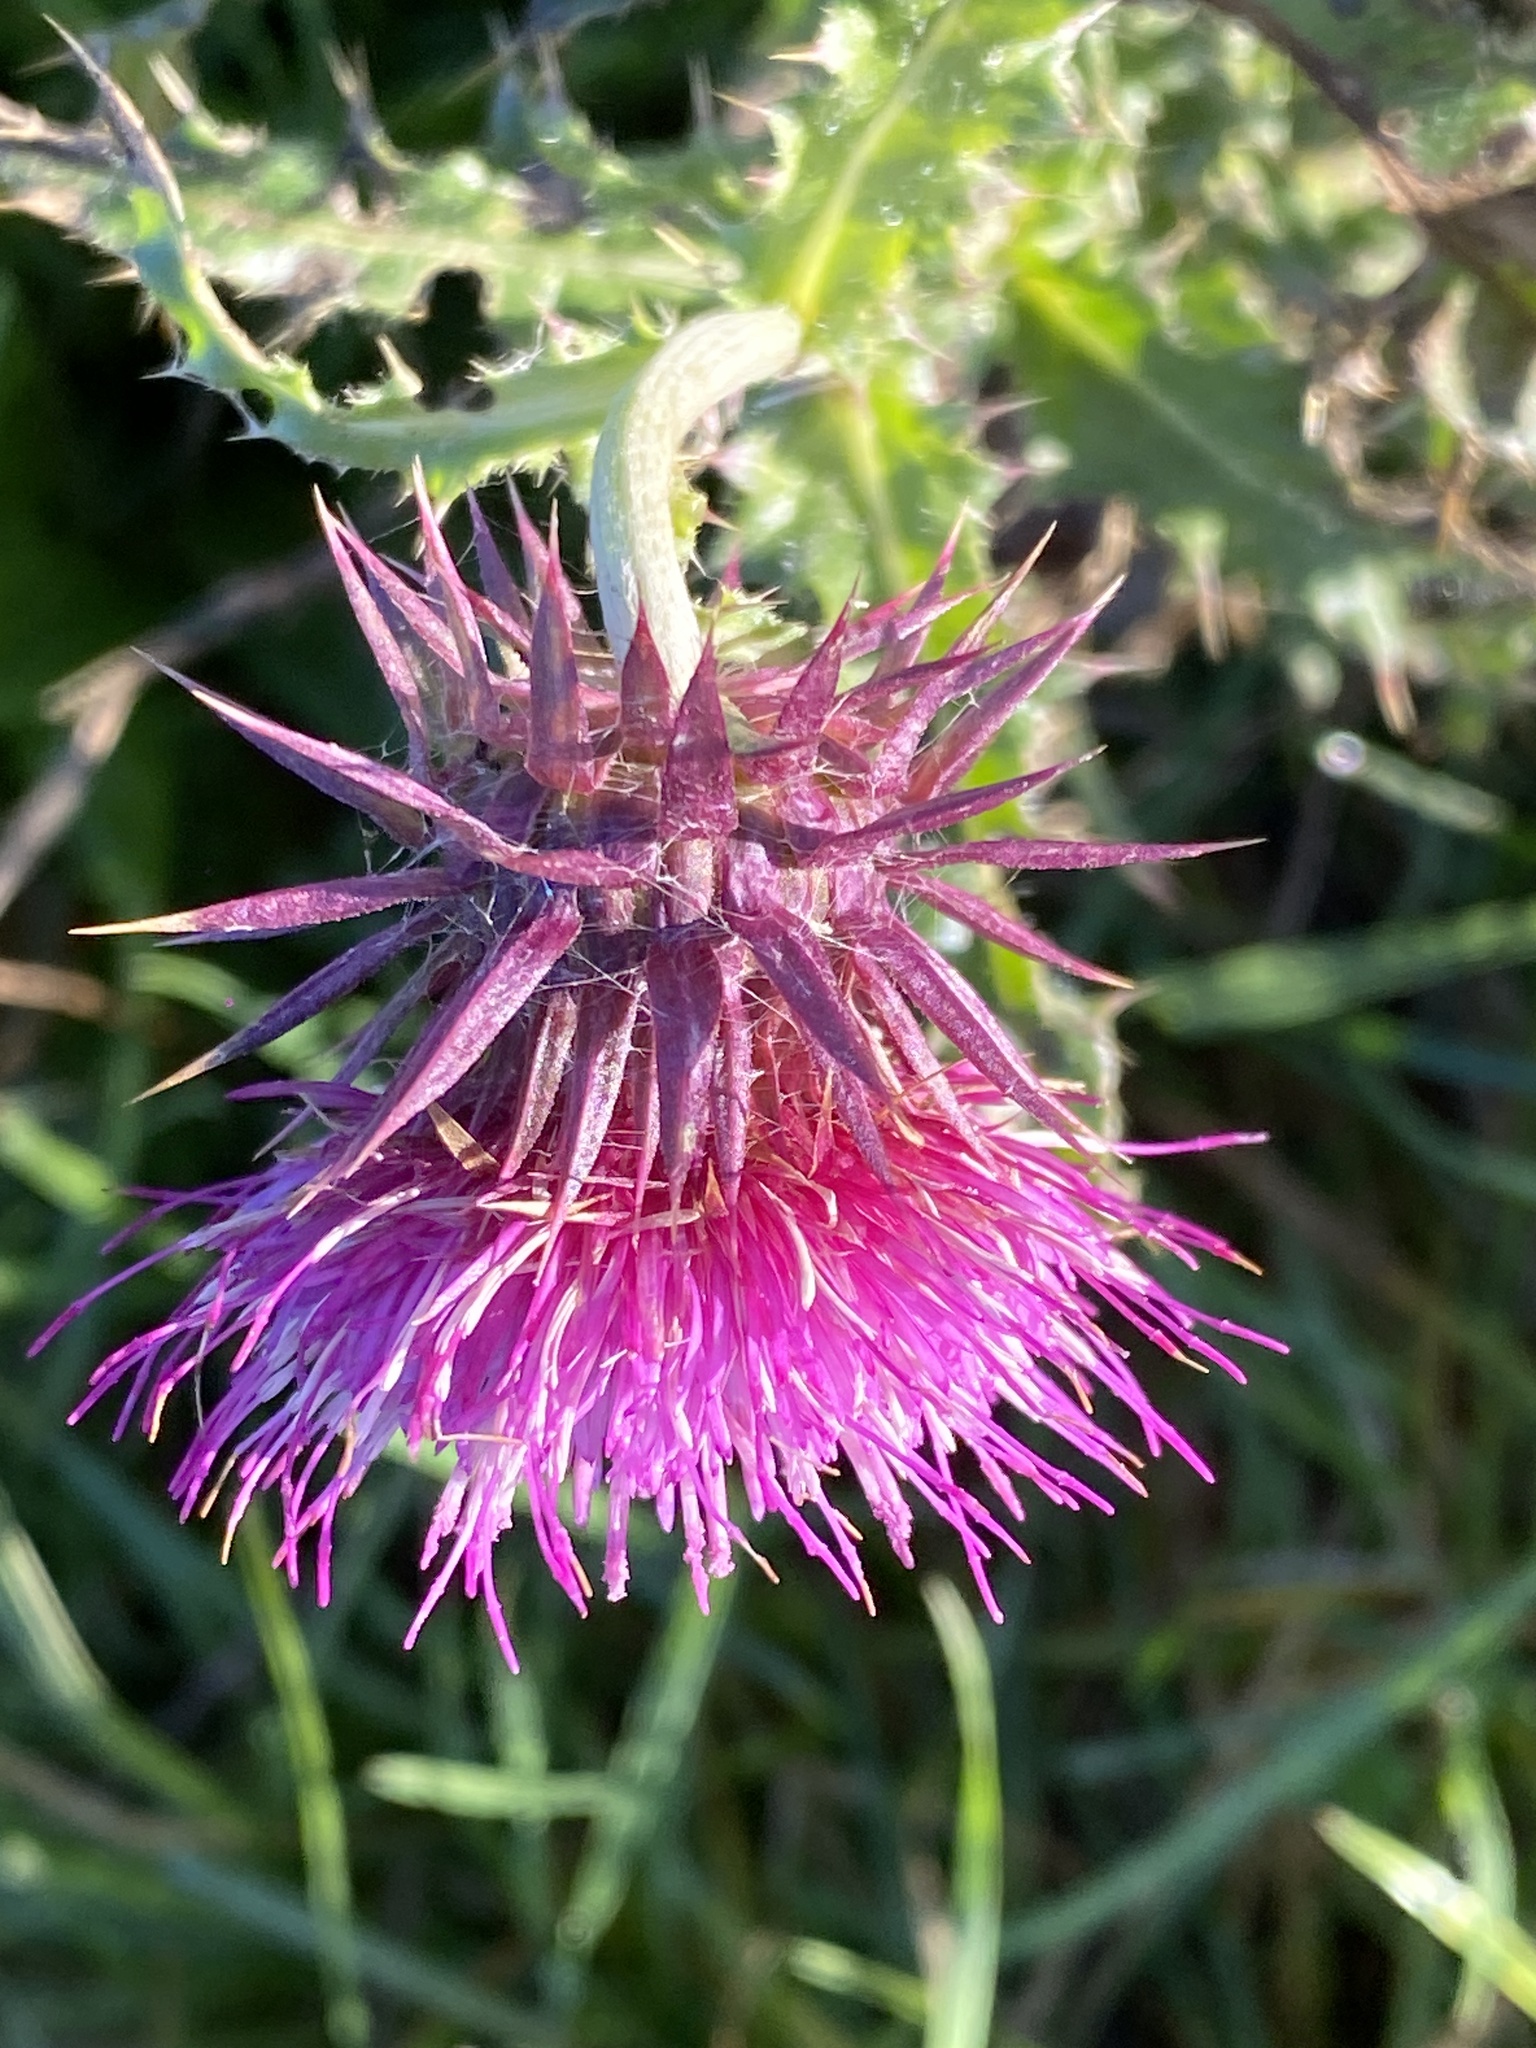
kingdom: Plantae
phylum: Tracheophyta
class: Magnoliopsida
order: Asterales
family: Asteraceae
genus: Carduus
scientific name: Carduus nutans
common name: Musk thistle
